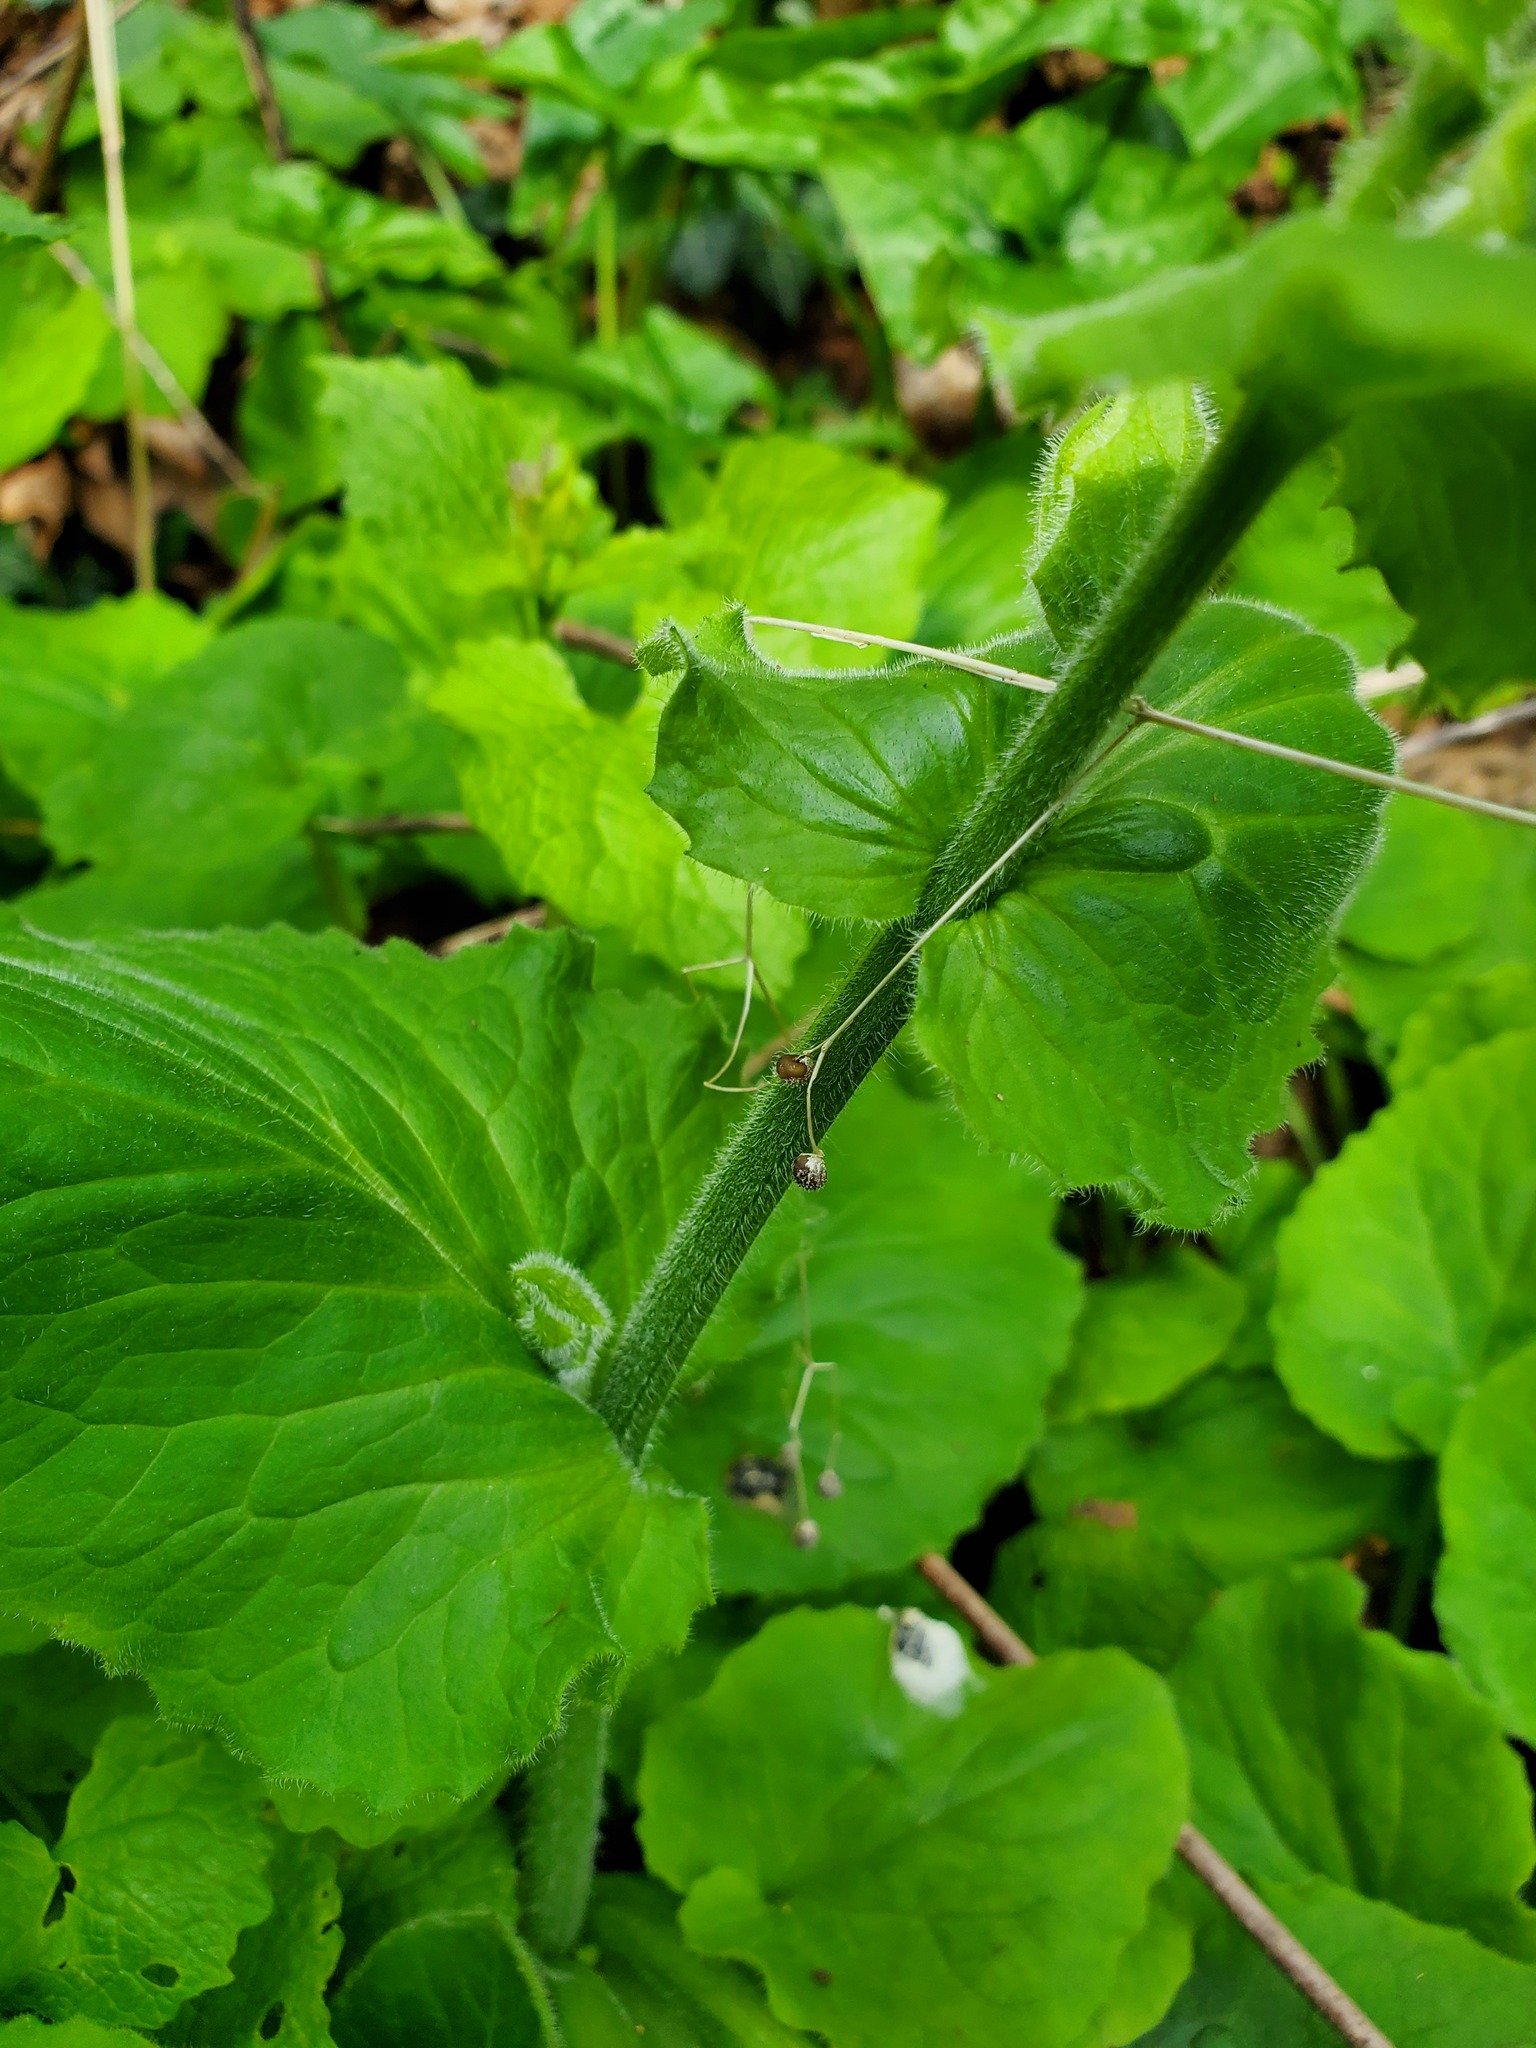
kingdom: Plantae
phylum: Tracheophyta
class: Magnoliopsida
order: Asterales
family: Asteraceae
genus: Doronicum
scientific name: Doronicum pardalianches
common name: Leopard's-bane
